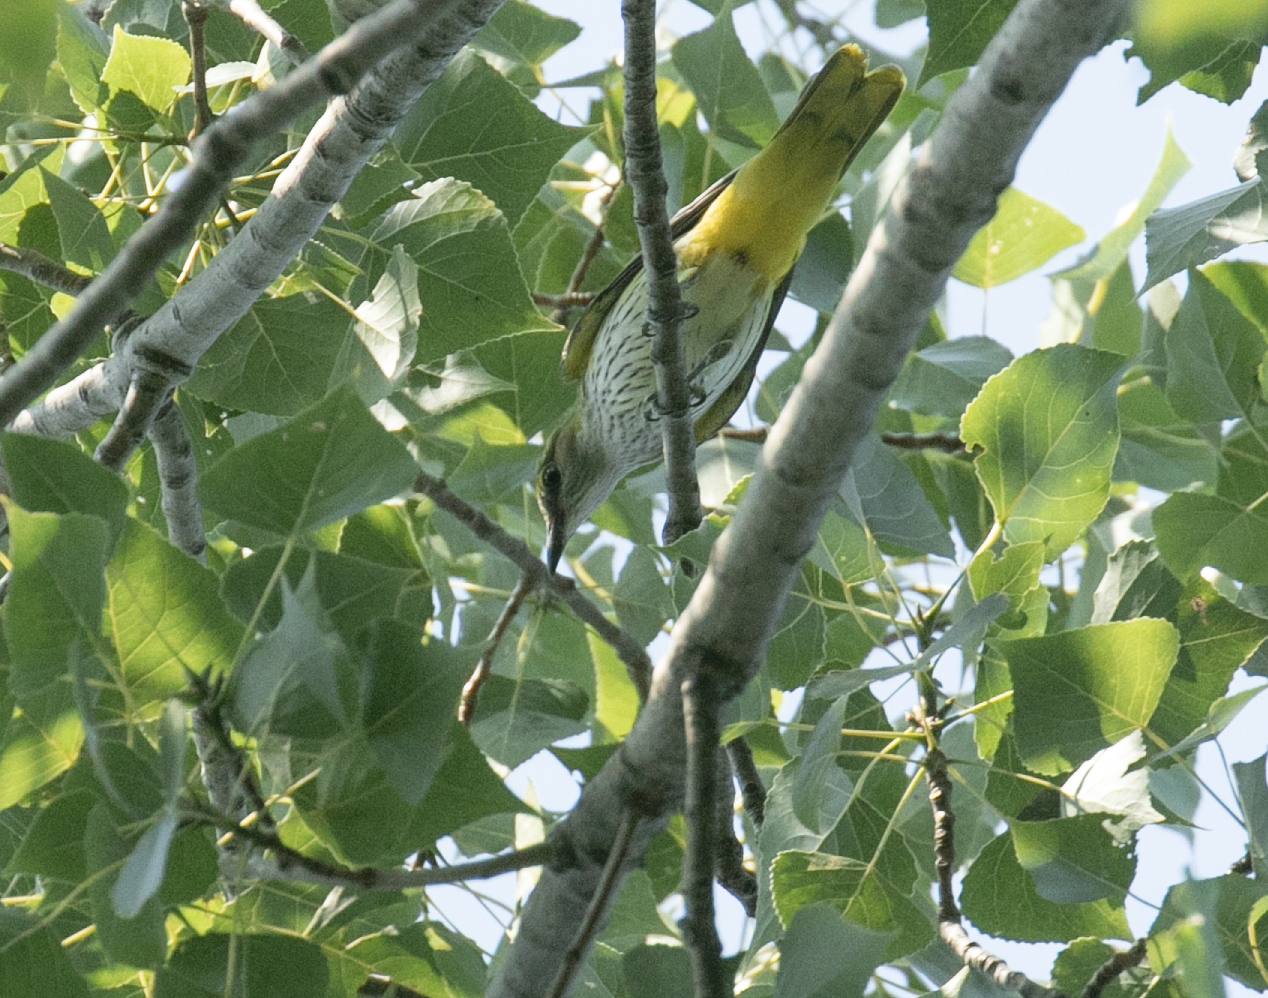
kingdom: Animalia
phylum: Chordata
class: Aves
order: Passeriformes
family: Oriolidae
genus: Oriolus
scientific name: Oriolus oriolus
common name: Eurasian golden oriole
